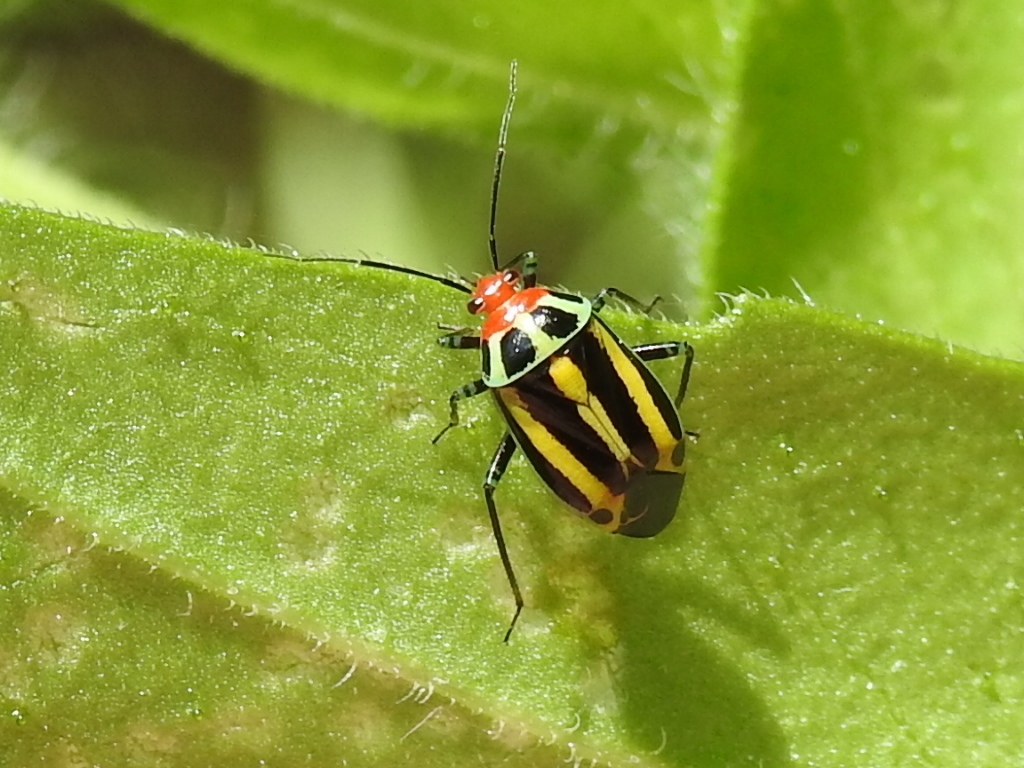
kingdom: Animalia
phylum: Arthropoda
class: Insecta
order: Hemiptera
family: Miridae
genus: Poecilocapsus
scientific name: Poecilocapsus lineatus
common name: Four-lined plant bug
